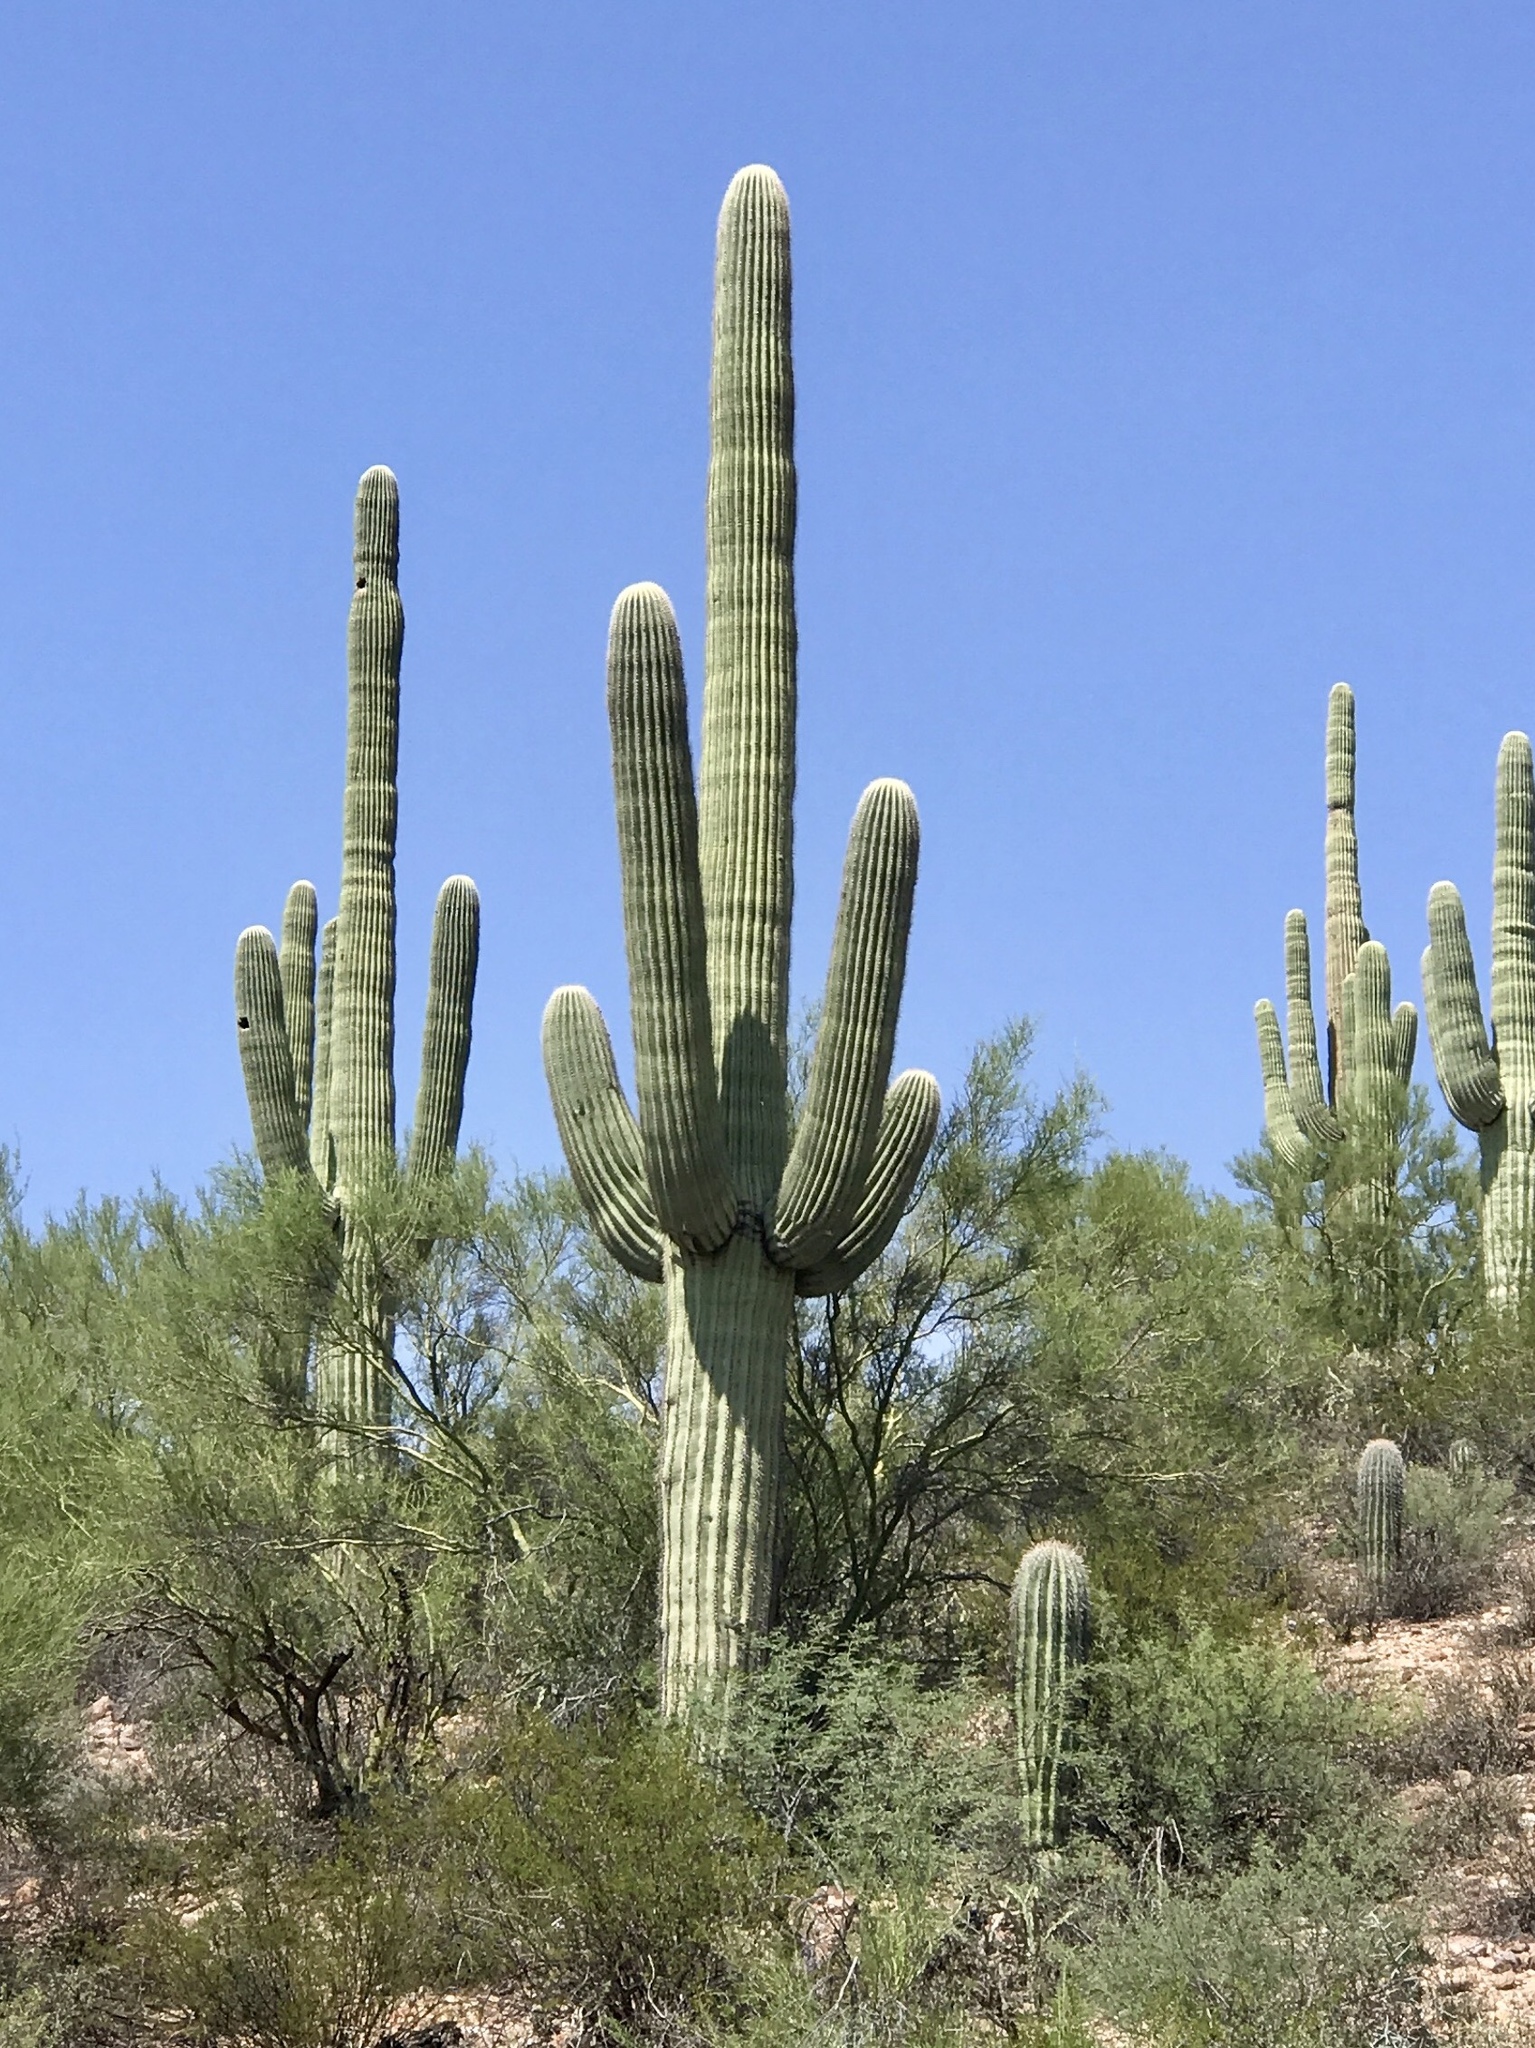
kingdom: Plantae
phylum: Tracheophyta
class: Magnoliopsida
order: Caryophyllales
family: Cactaceae
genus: Carnegiea
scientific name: Carnegiea gigantea
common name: Saguaro
